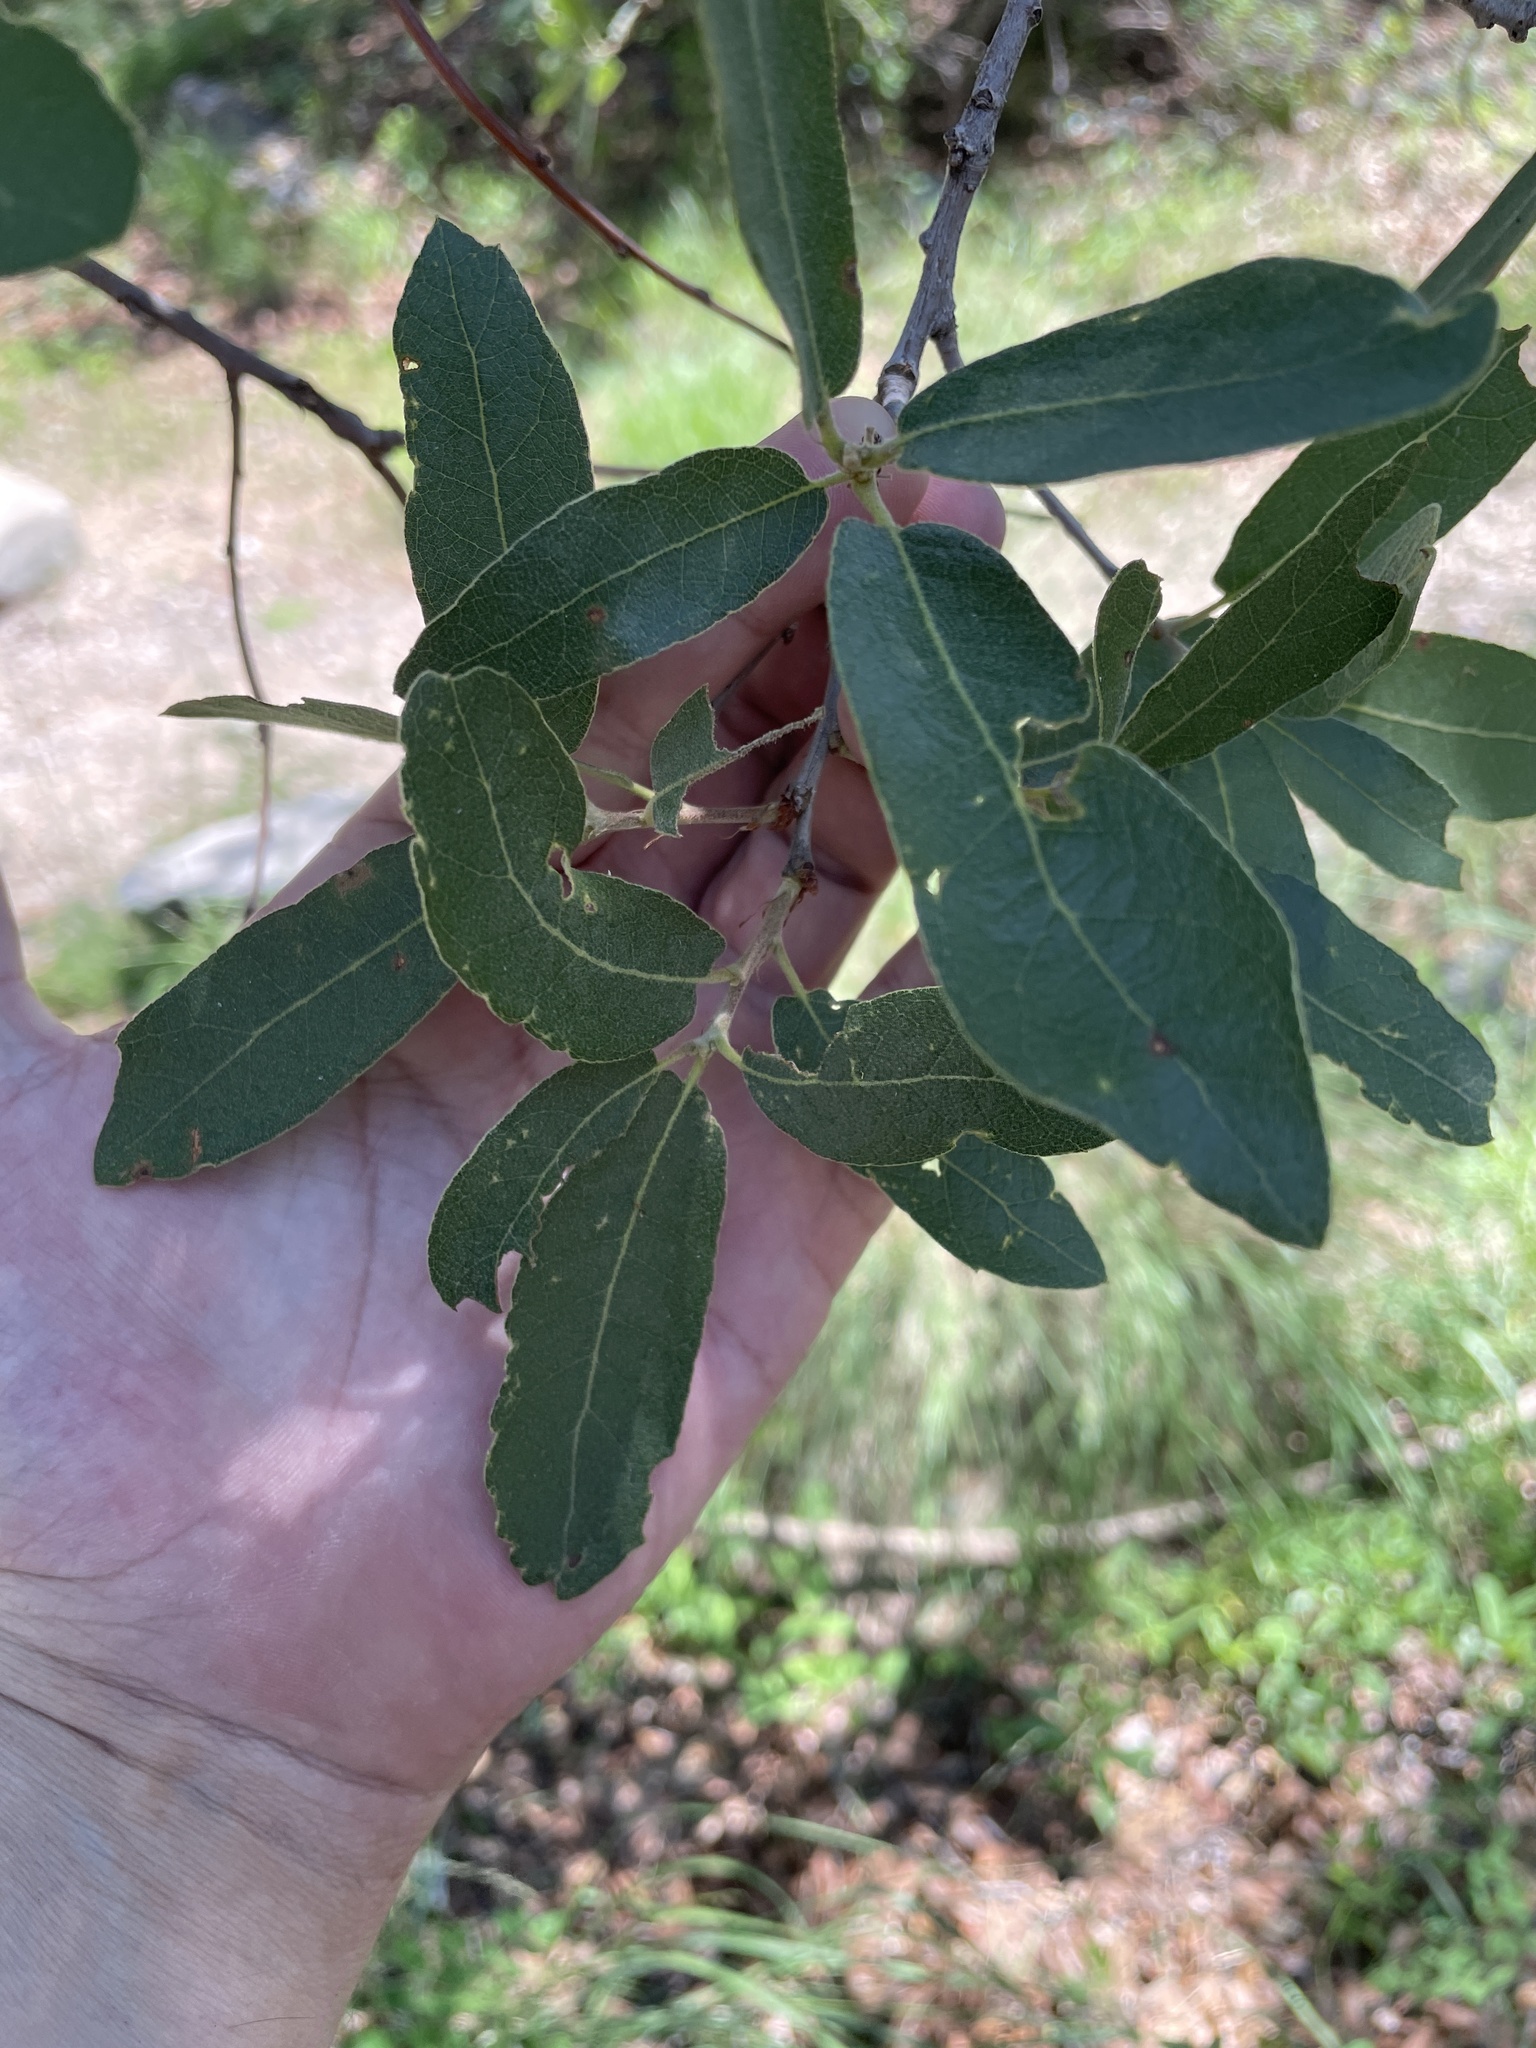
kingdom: Plantae
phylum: Tracheophyta
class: Magnoliopsida
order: Fagales
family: Fagaceae
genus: Quercus
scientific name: Quercus oblongifolia
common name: Mexican blue oak
